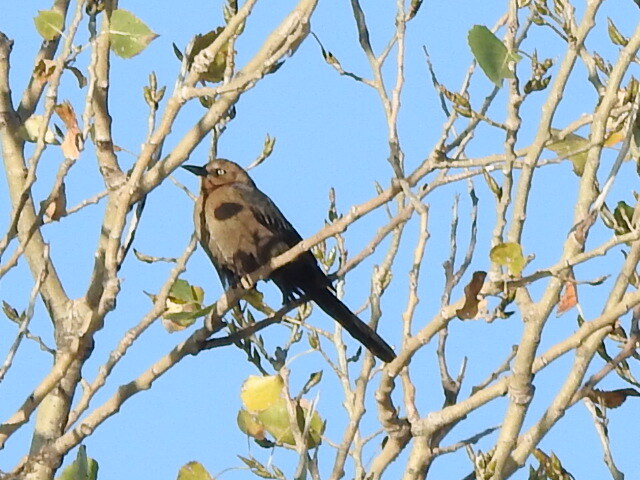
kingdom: Animalia
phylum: Chordata
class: Aves
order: Passeriformes
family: Icteridae
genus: Quiscalus
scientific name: Quiscalus mexicanus
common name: Great-tailed grackle
